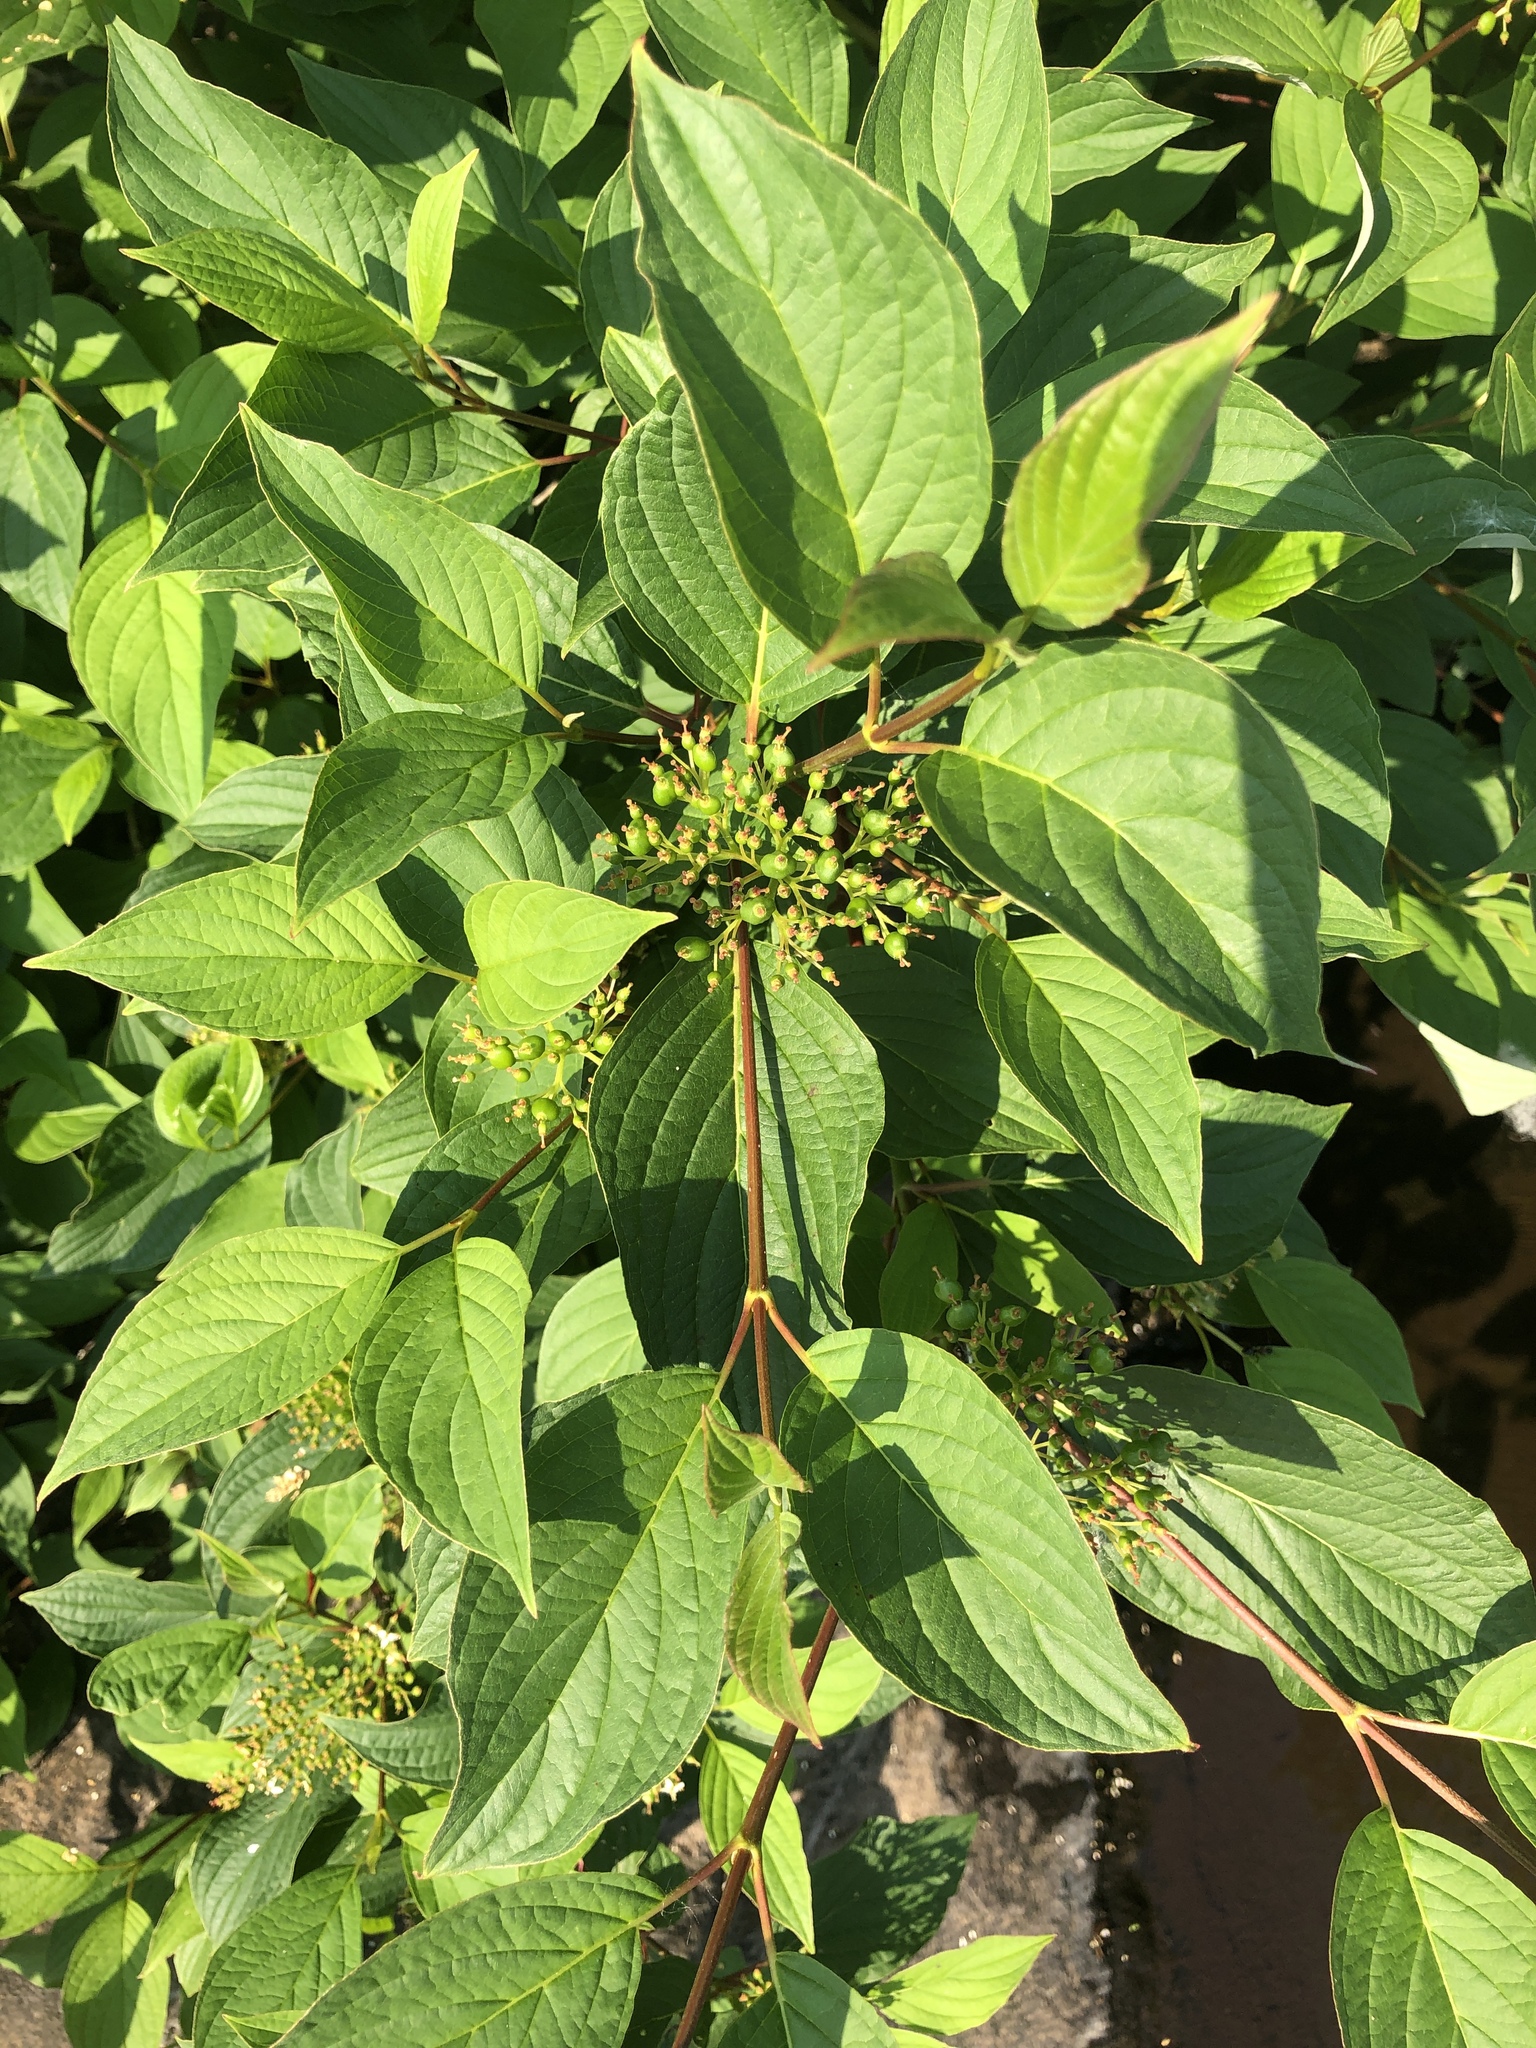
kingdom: Plantae
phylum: Tracheophyta
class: Magnoliopsida
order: Cornales
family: Cornaceae
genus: Cornus
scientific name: Cornus sericea
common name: Red-osier dogwood
